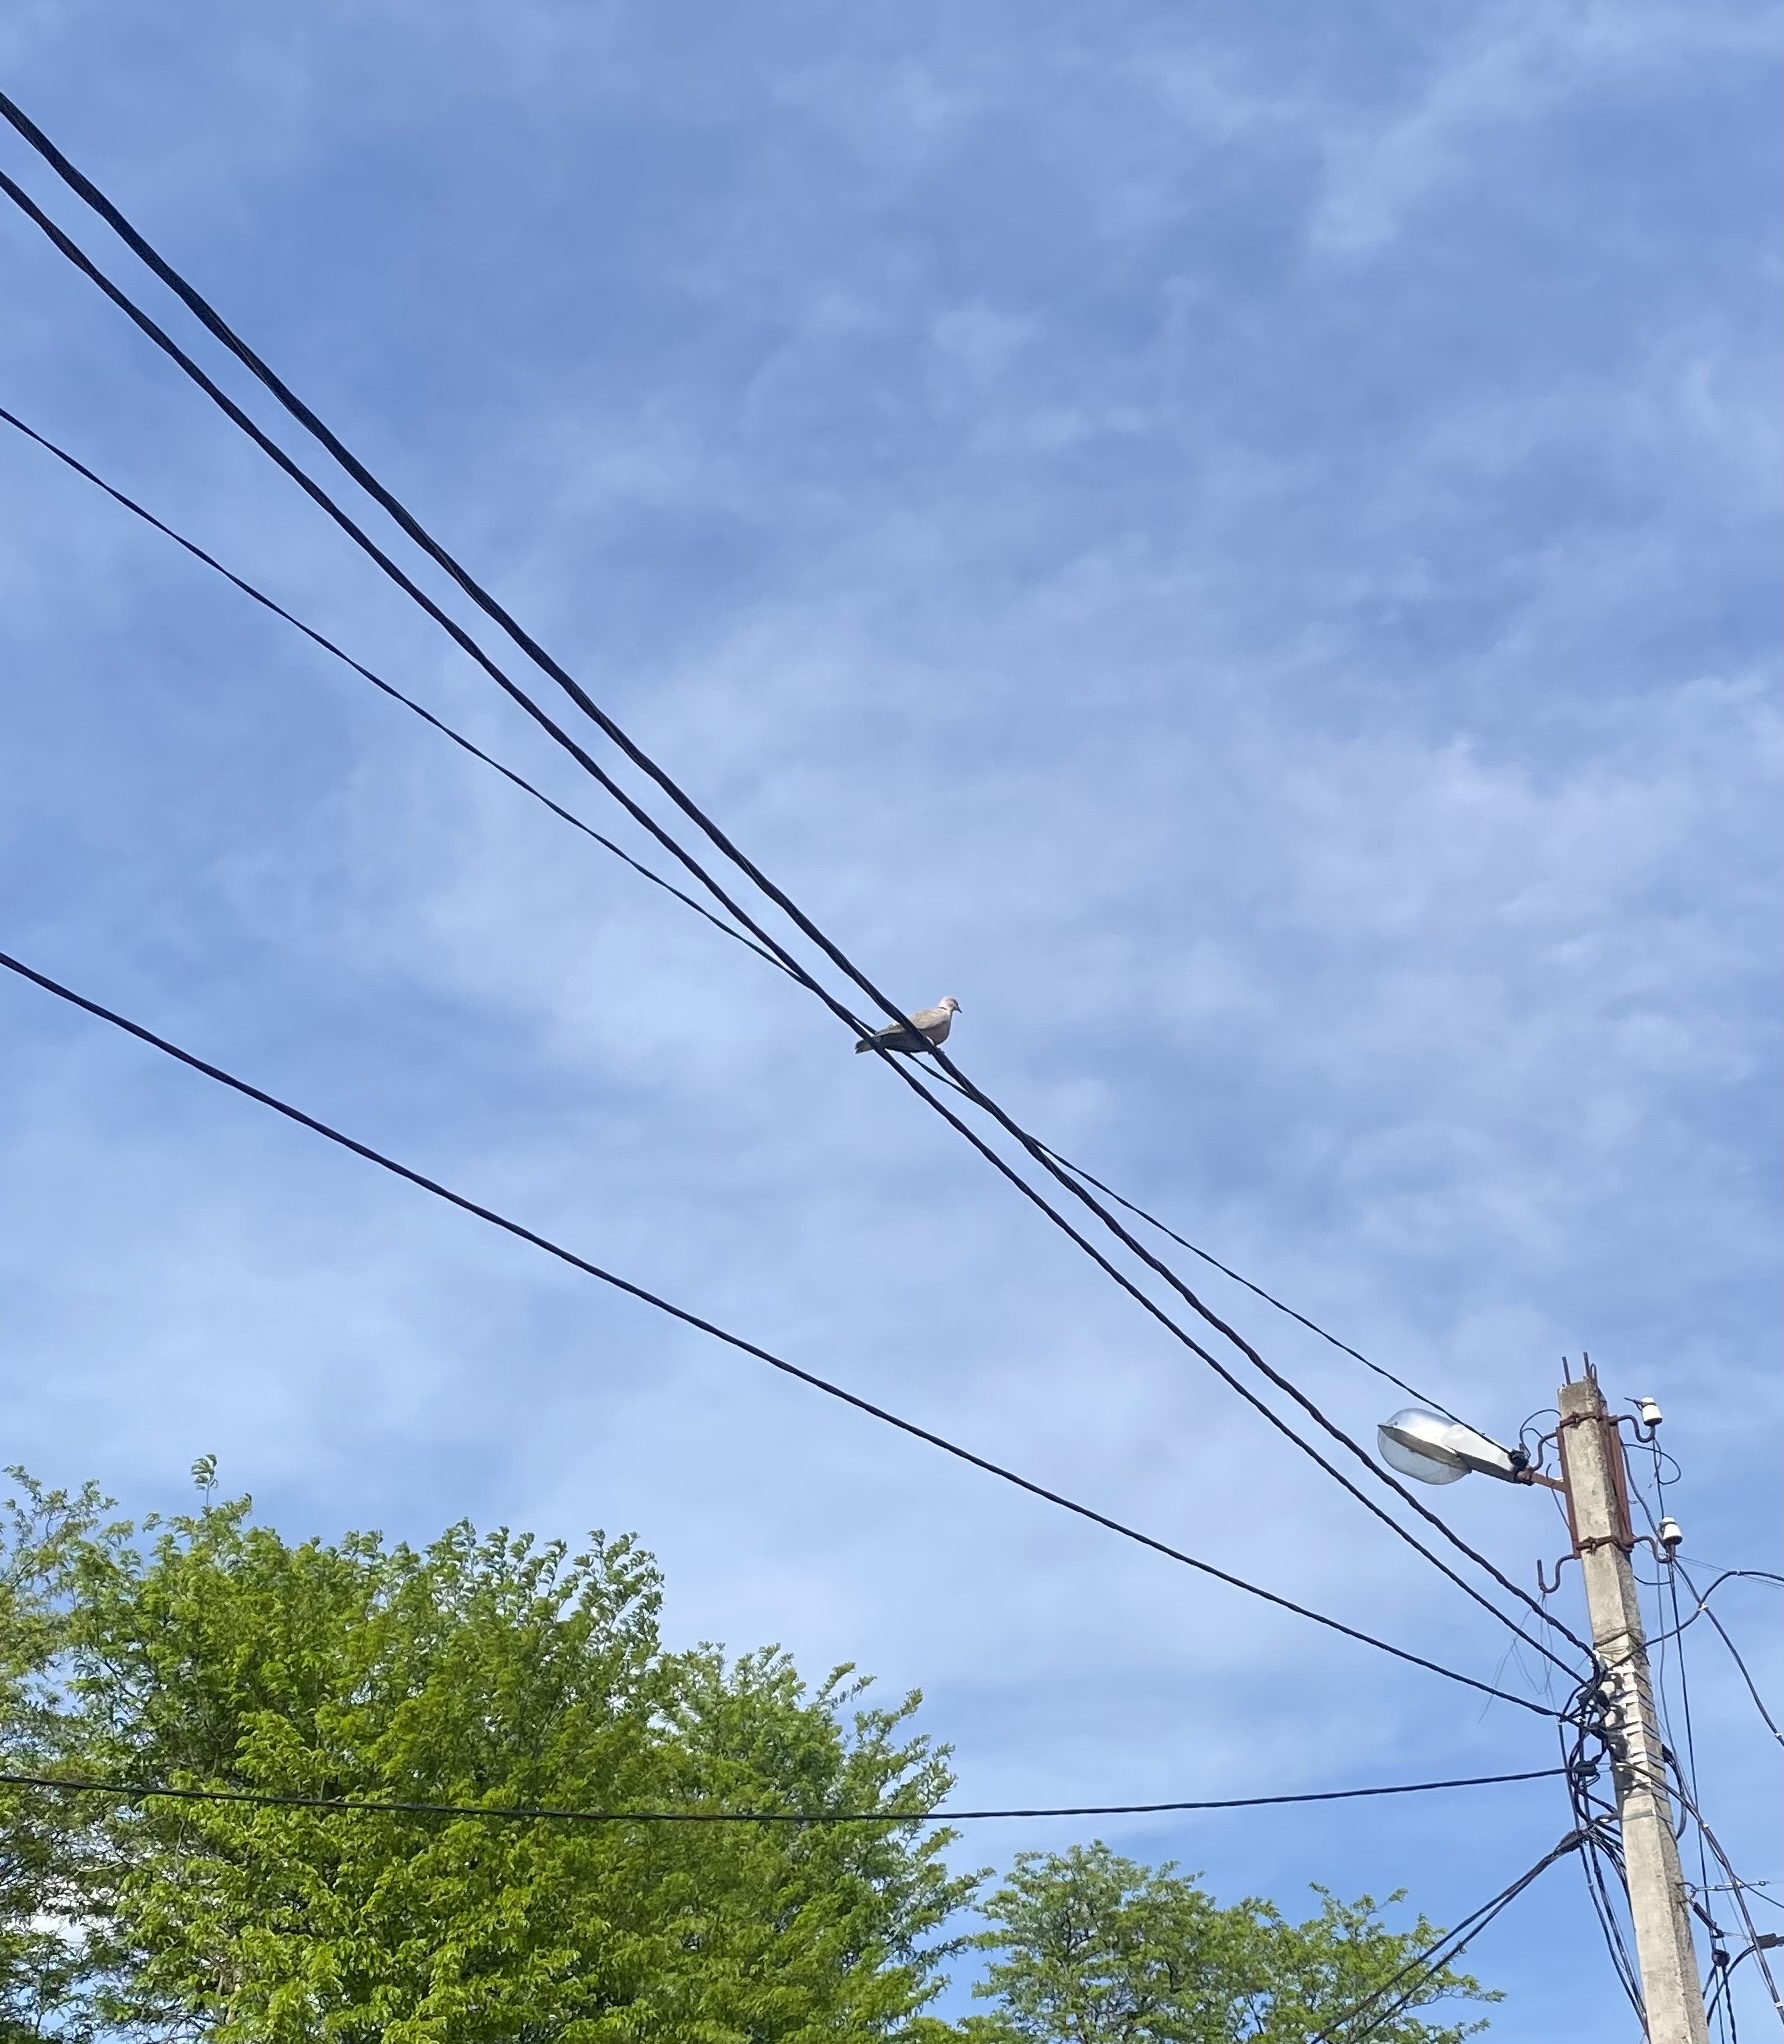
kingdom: Animalia
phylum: Chordata
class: Aves
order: Columbiformes
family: Columbidae
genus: Streptopelia
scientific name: Streptopelia decaocto
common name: Eurasian collared dove
